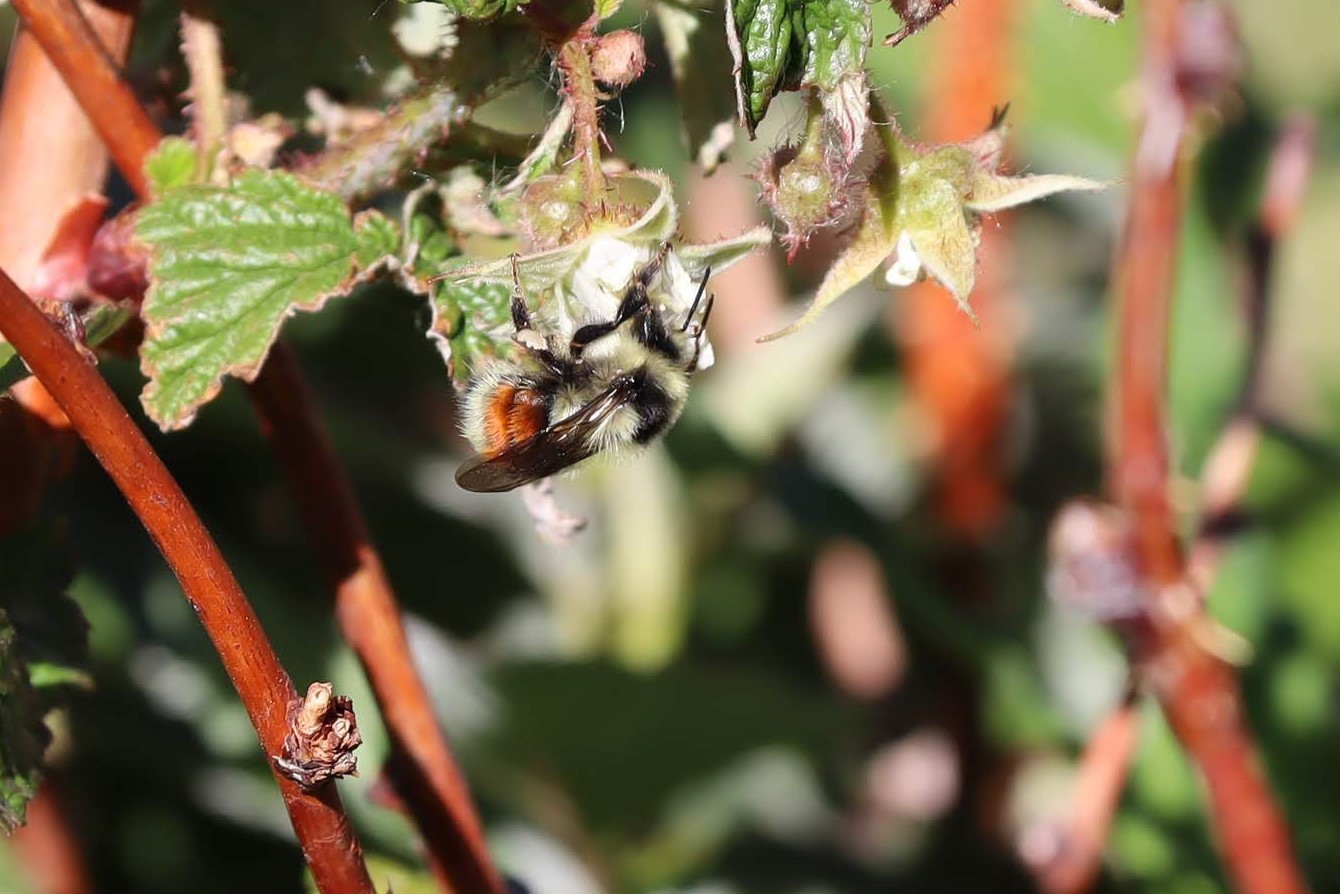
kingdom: Animalia
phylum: Arthropoda
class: Insecta
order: Hymenoptera
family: Apidae
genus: Pyrobombus
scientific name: Pyrobombus
